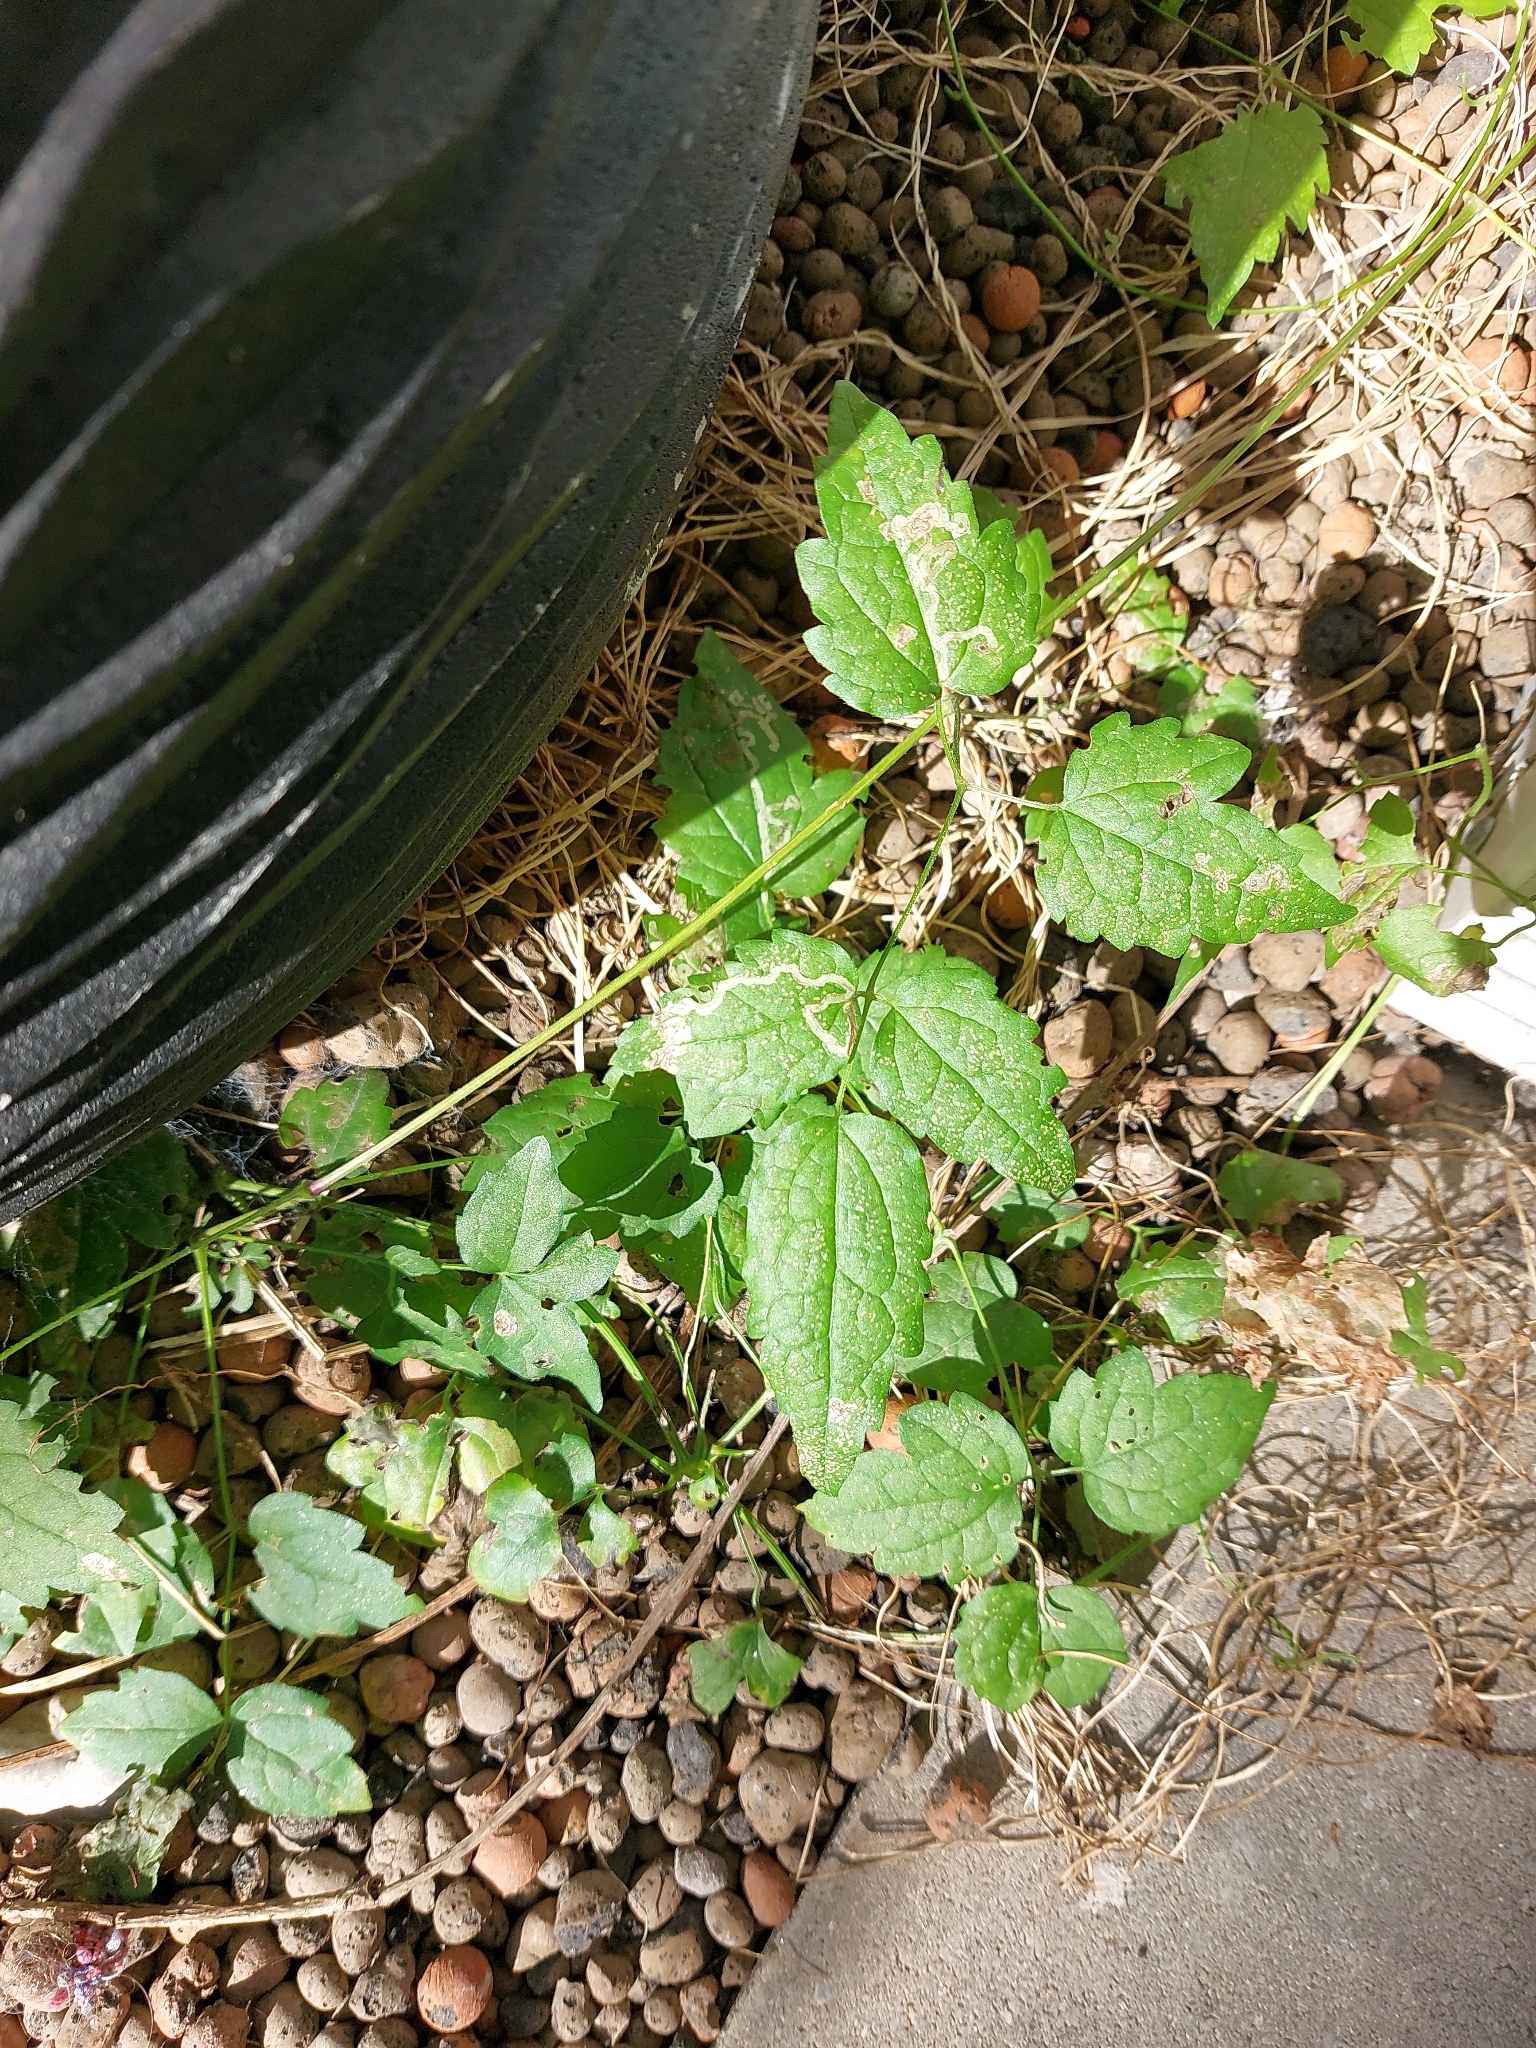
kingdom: Plantae
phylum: Tracheophyta
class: Magnoliopsida
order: Ranunculales
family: Ranunculaceae
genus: Clematis
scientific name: Clematis vitalba
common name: Evergreen clematis
